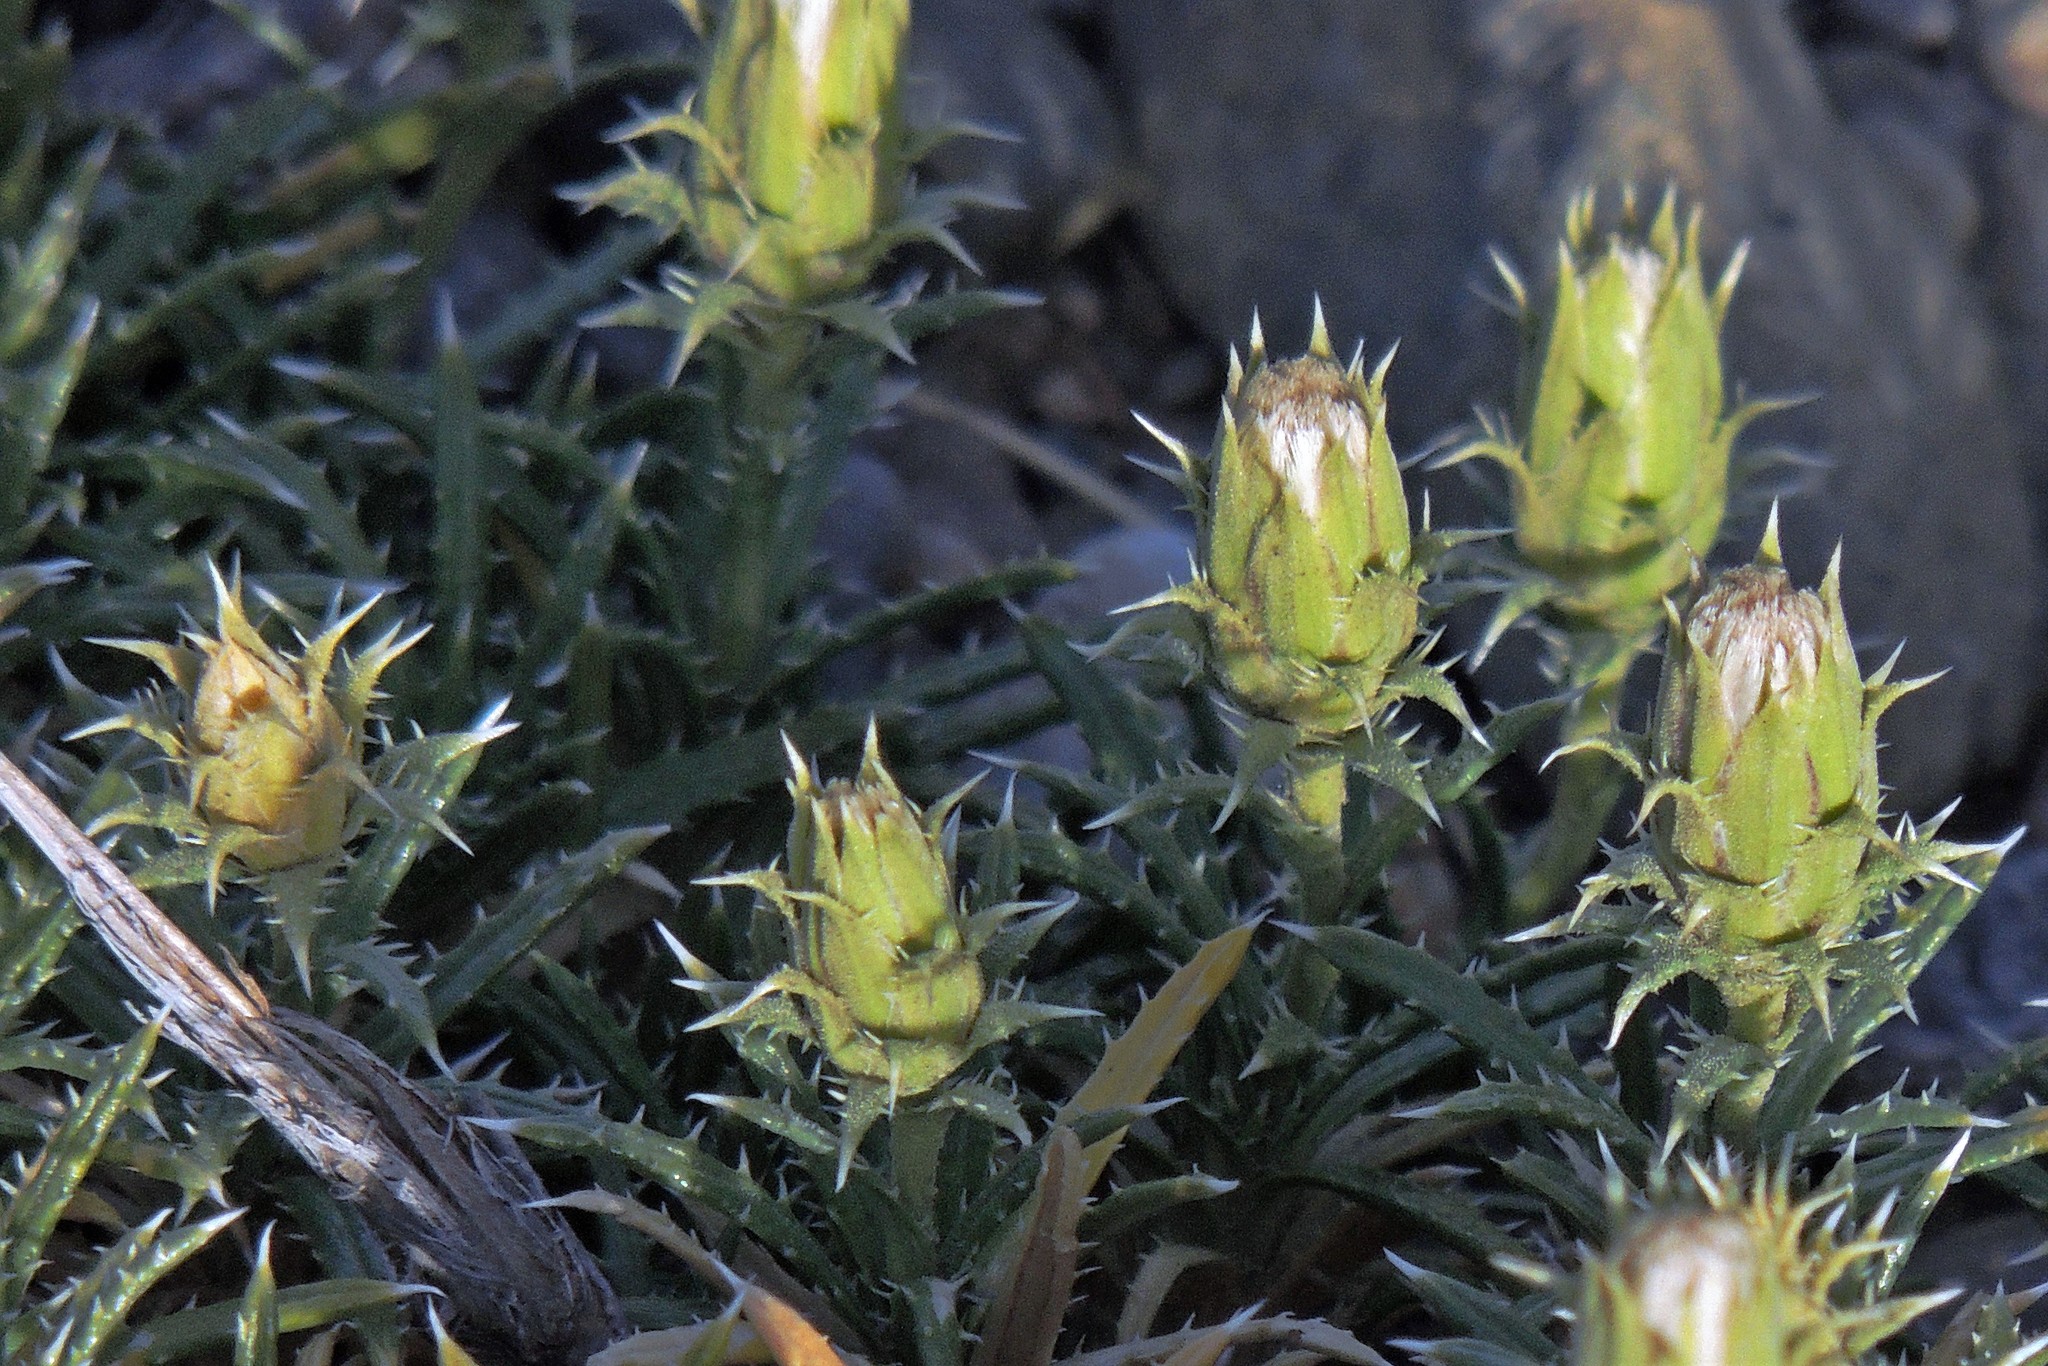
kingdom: Plantae
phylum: Tracheophyta
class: Magnoliopsida
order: Asterales
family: Asteraceae
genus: Perezia
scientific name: Perezia recurvata
